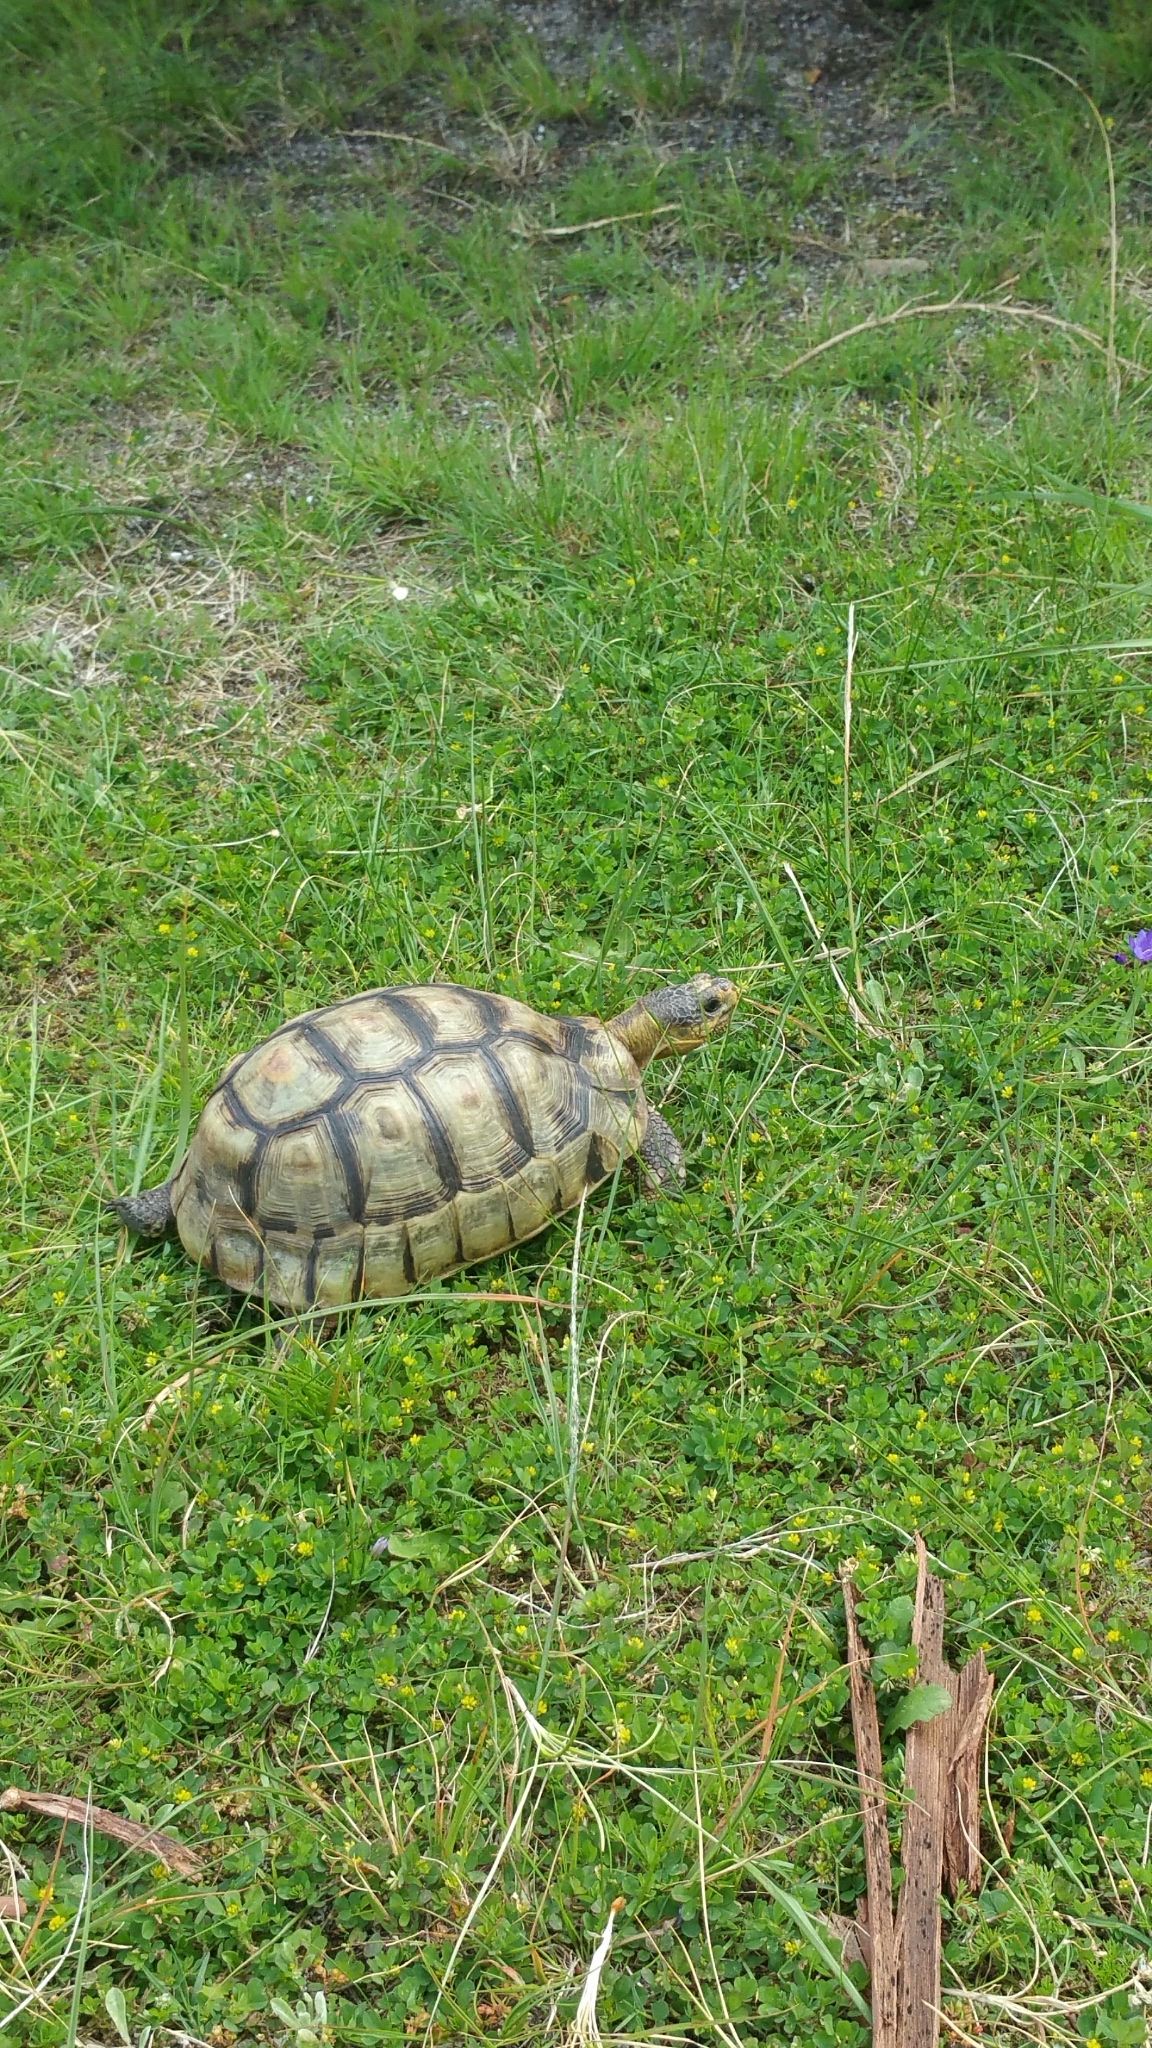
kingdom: Animalia
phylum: Chordata
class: Testudines
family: Testudinidae
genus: Chersina
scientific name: Chersina angulata
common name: South african bowsprit tortoise
